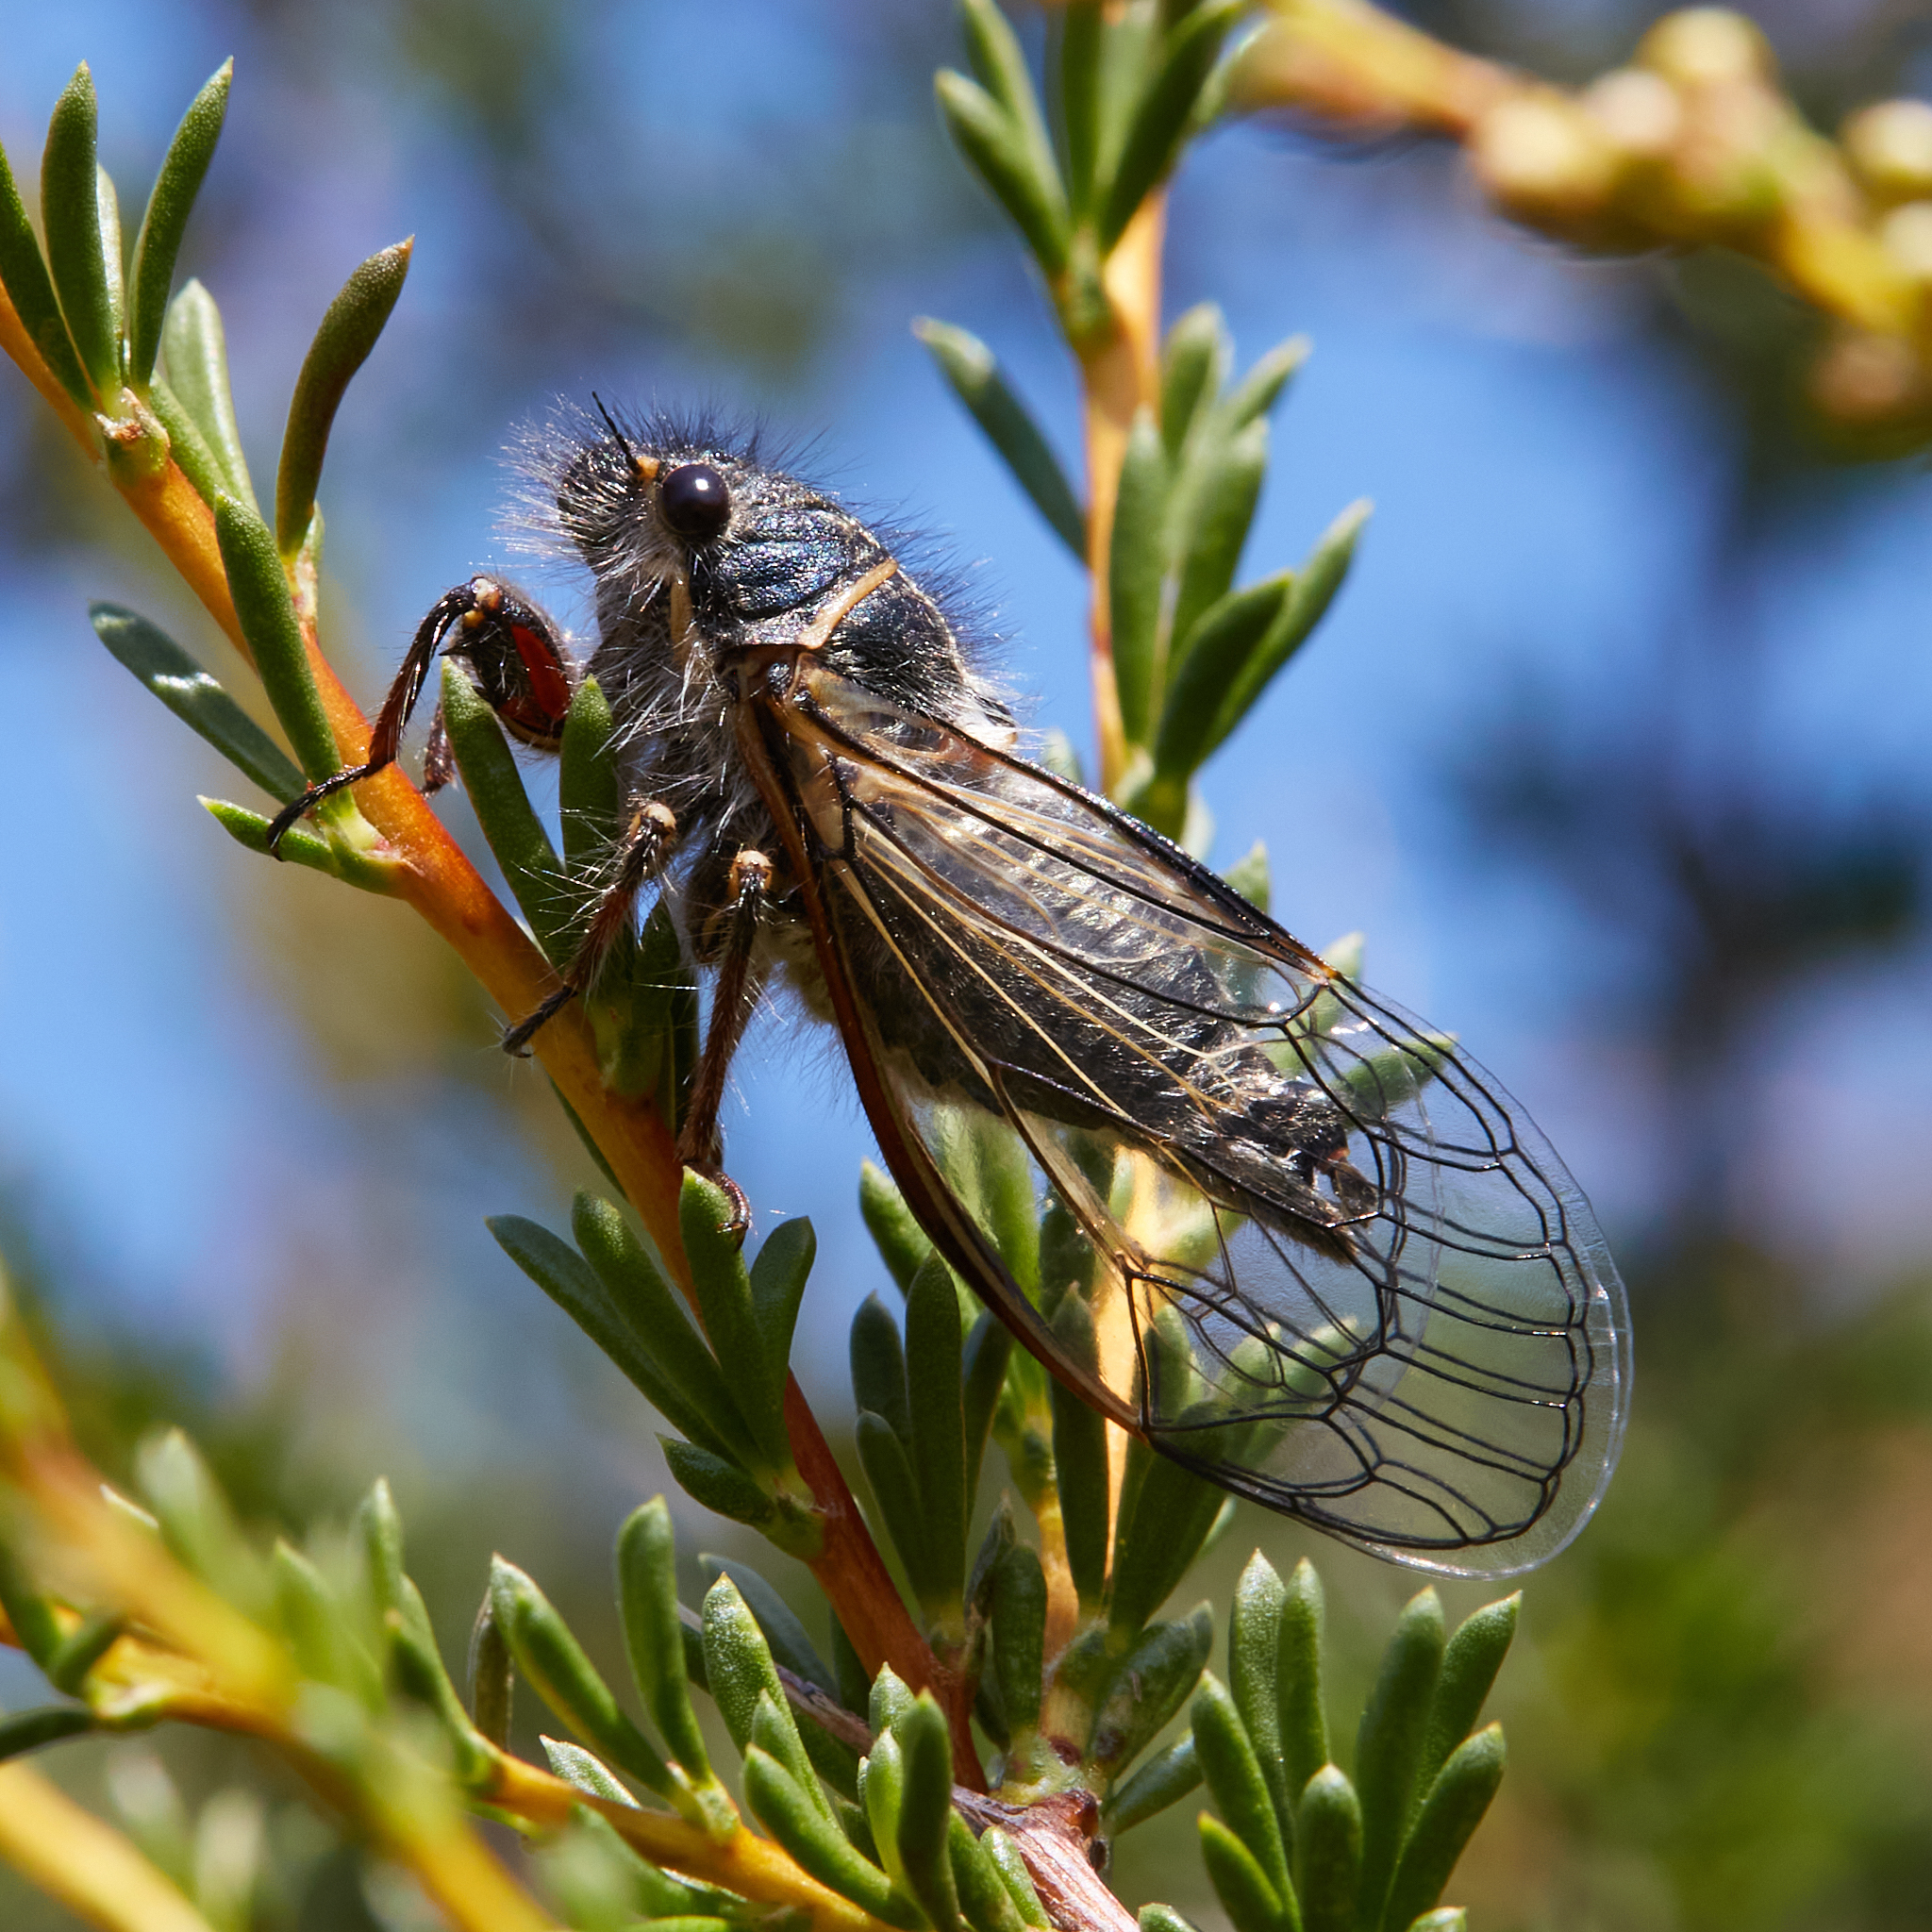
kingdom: Animalia
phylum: Arthropoda
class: Insecta
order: Hemiptera
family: Cicadidae
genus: Neoplatypedia
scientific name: Neoplatypedia ampliata
